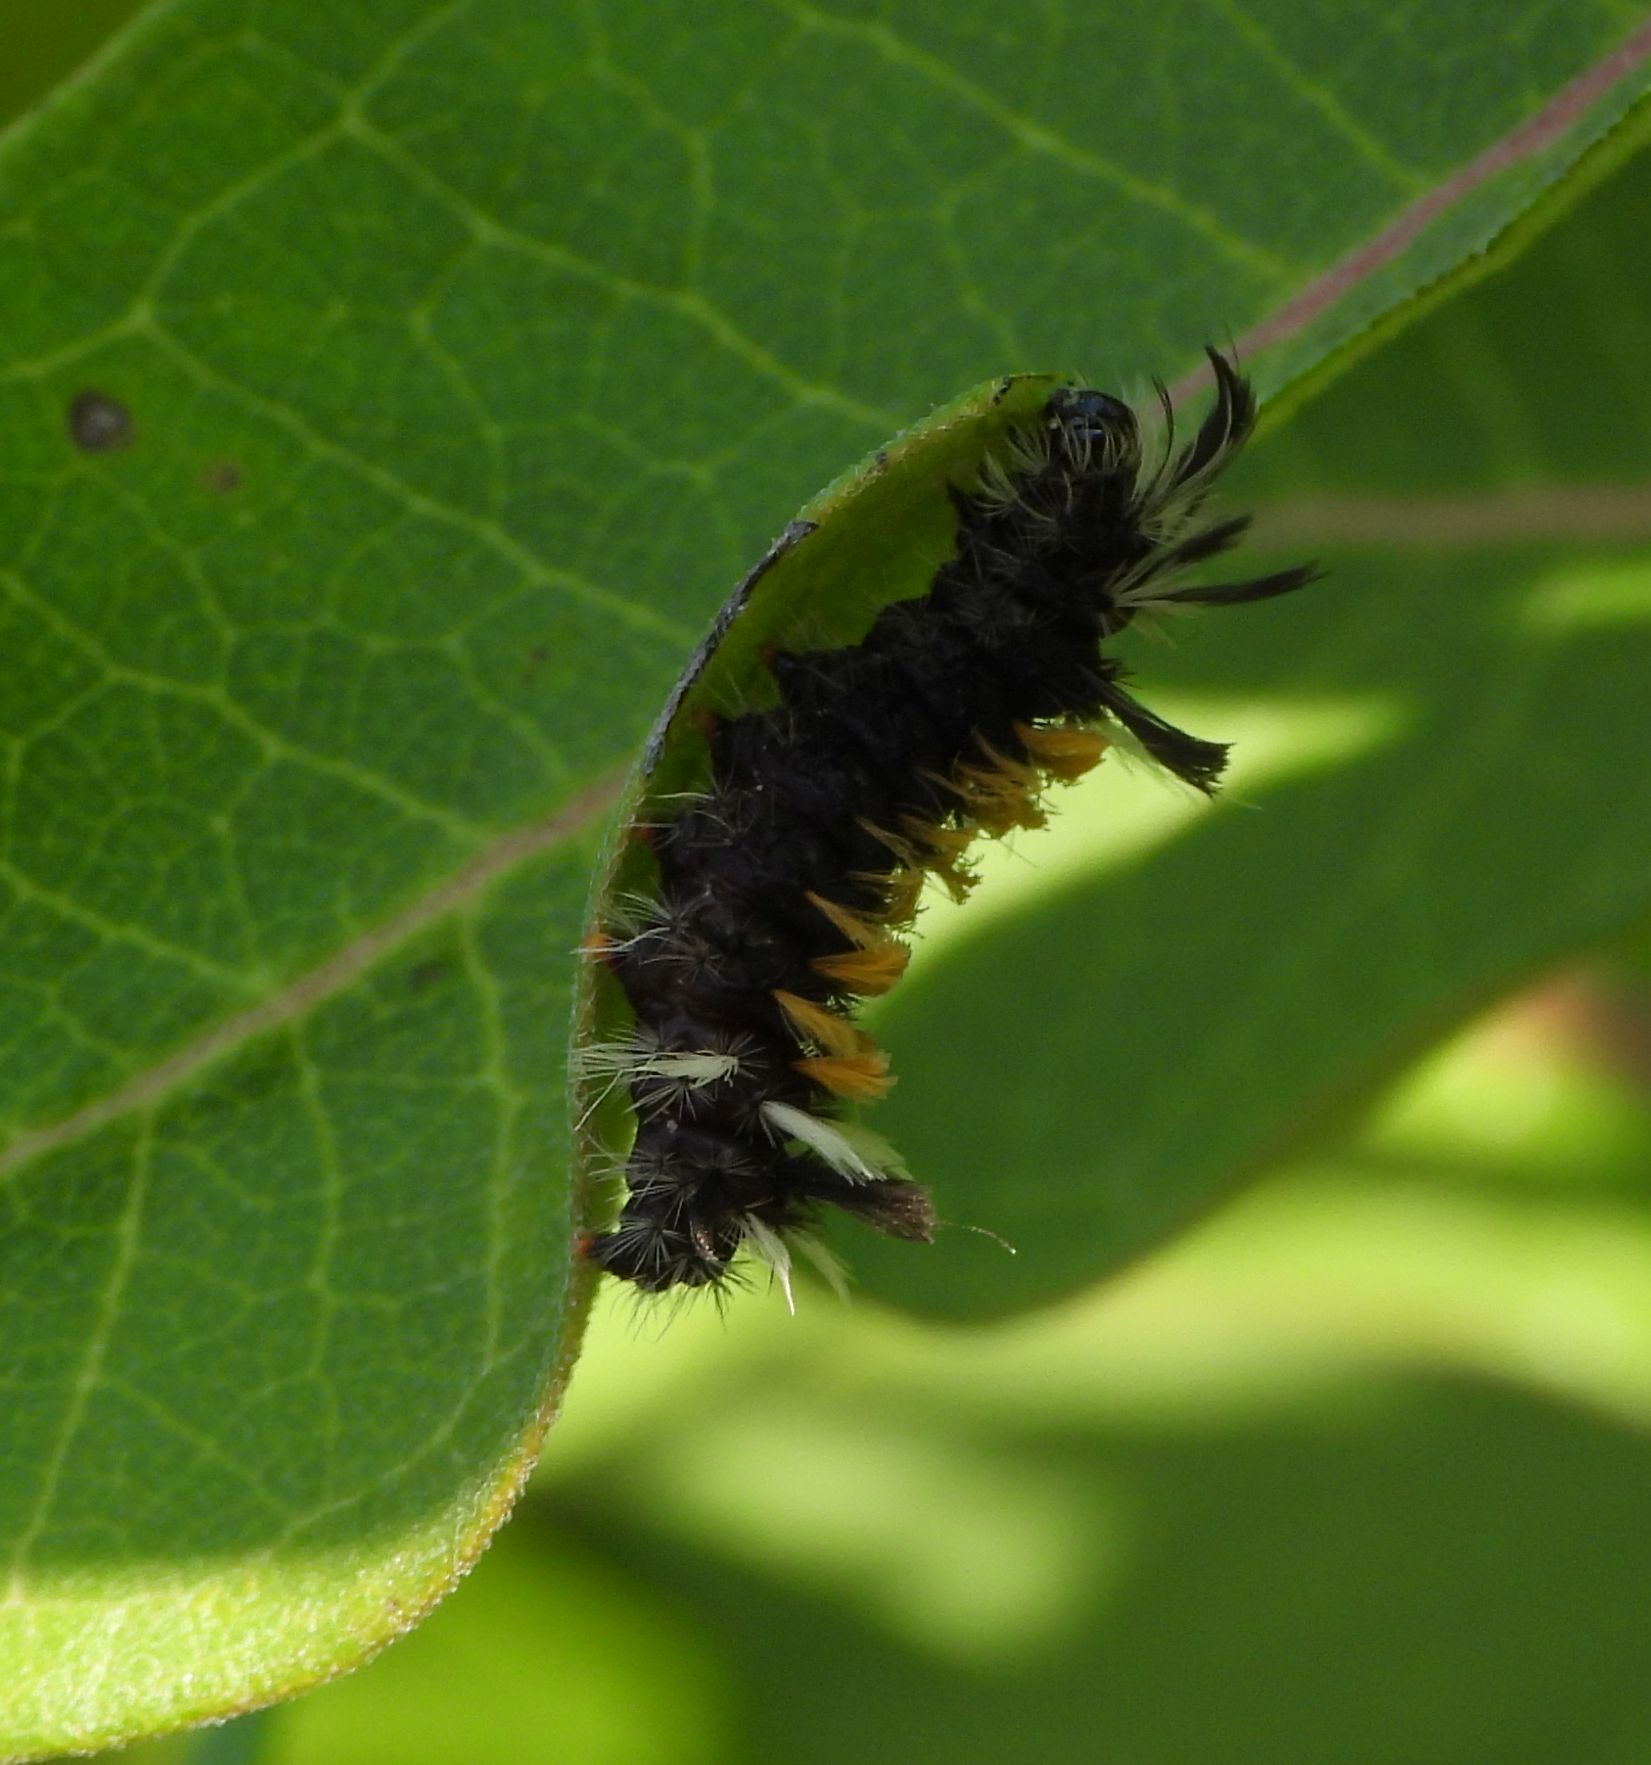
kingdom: Animalia
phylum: Arthropoda
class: Insecta
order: Lepidoptera
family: Erebidae
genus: Euchaetes
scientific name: Euchaetes egle
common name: Milkweed tussock moth
